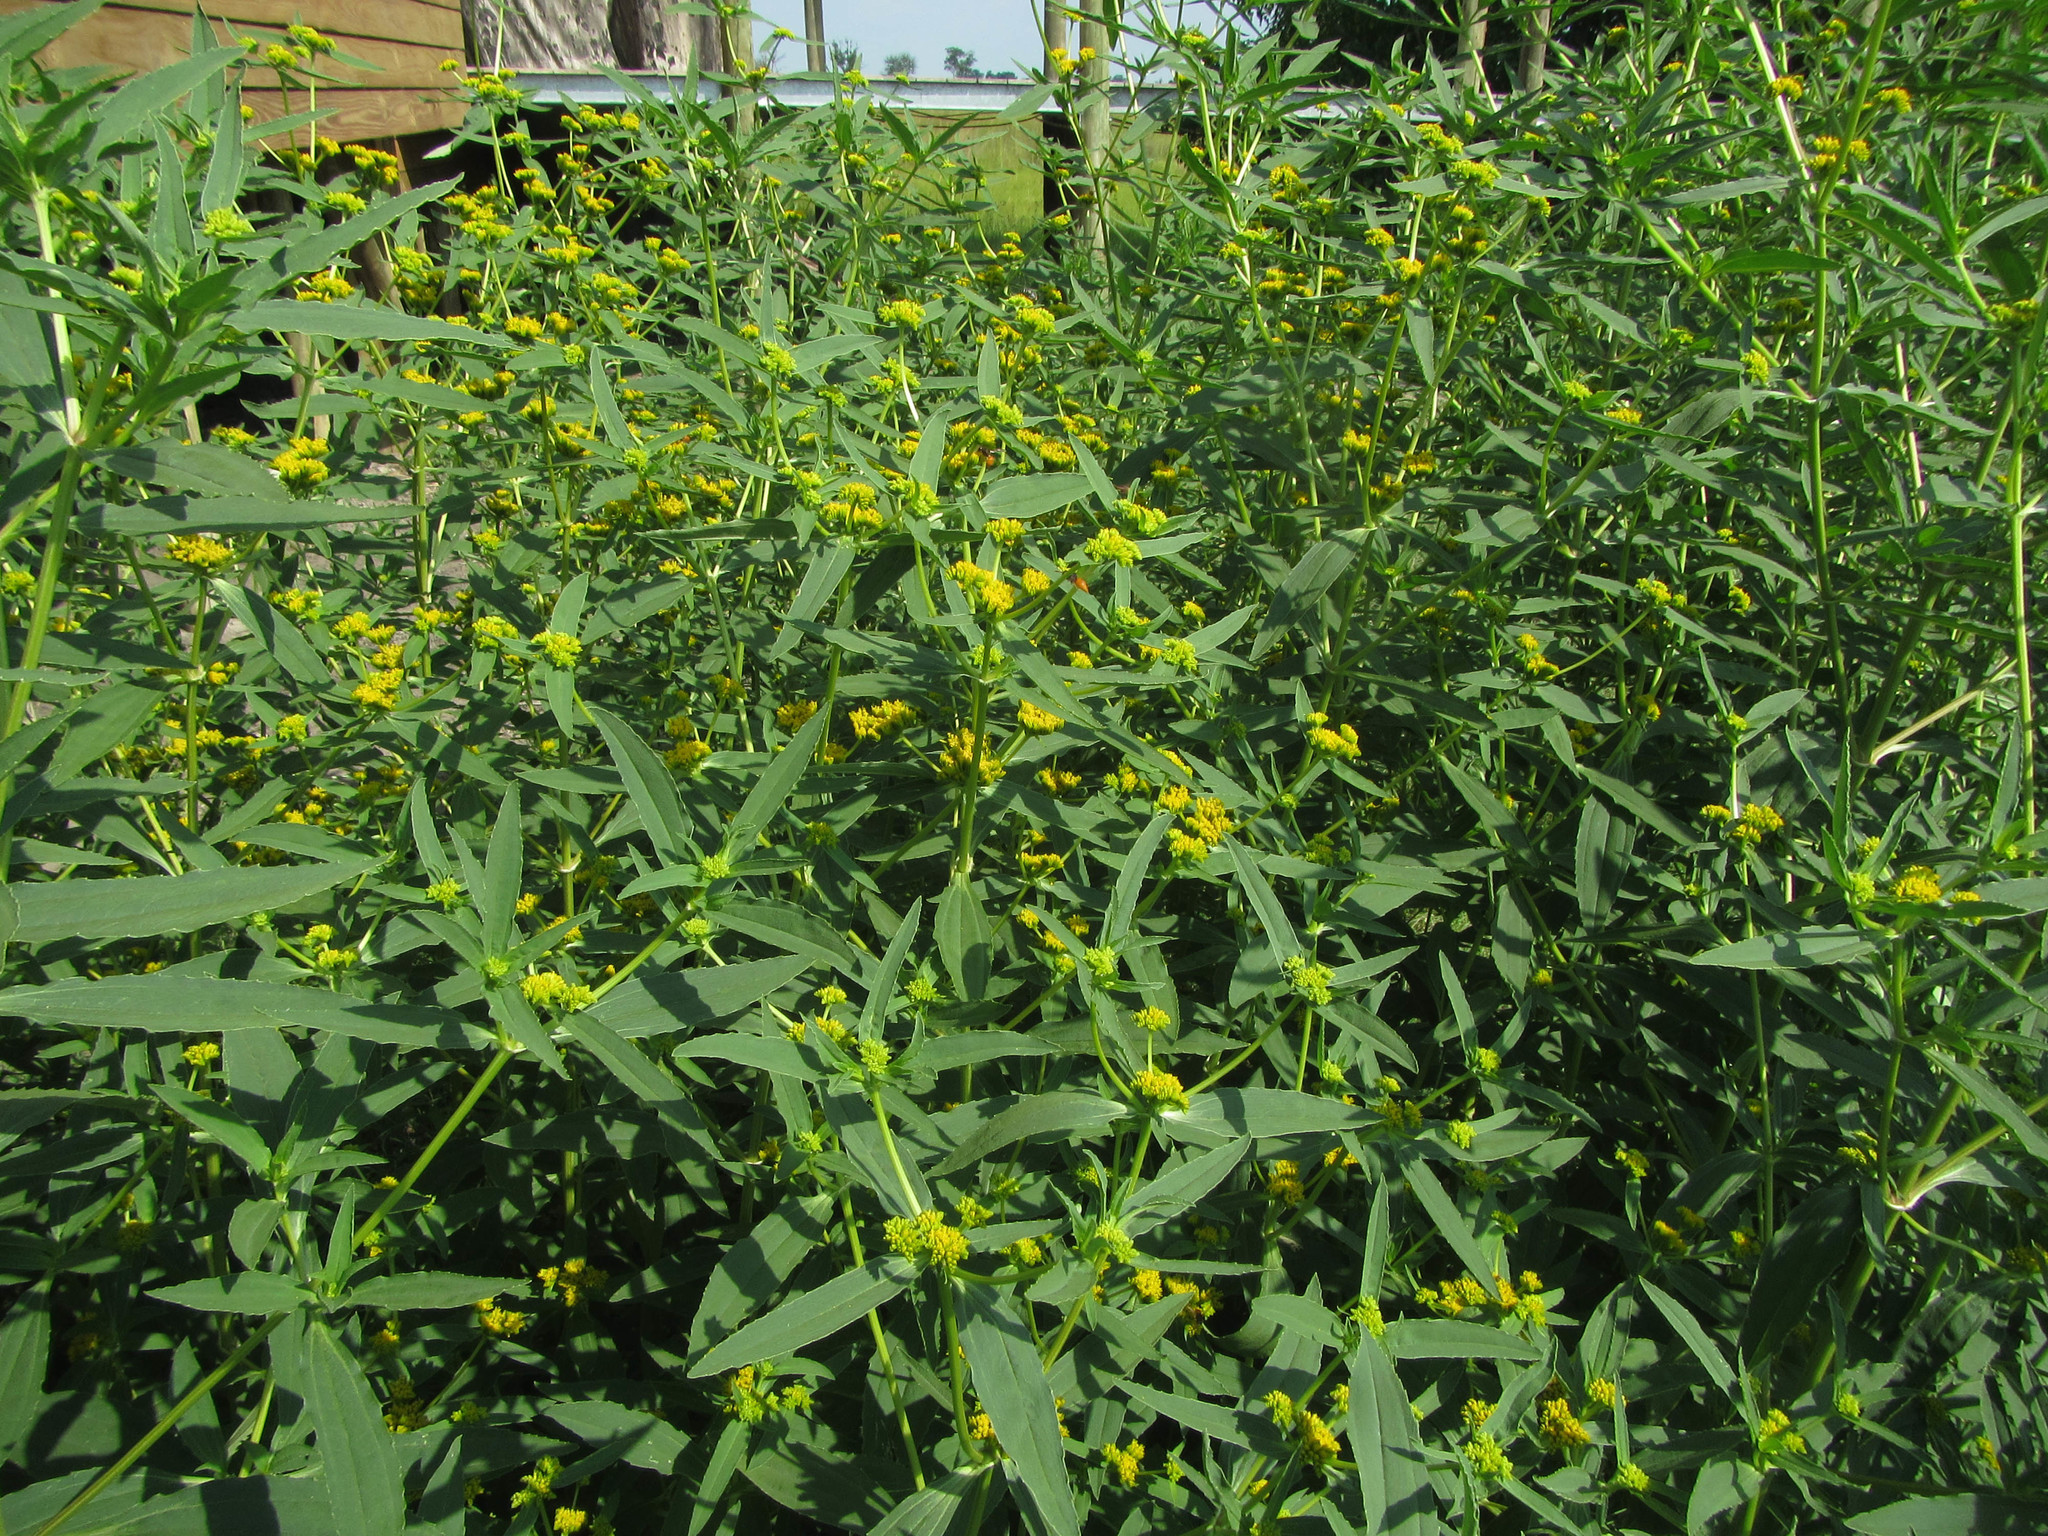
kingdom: Plantae
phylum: Tracheophyta
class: Magnoliopsida
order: Asterales
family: Asteraceae
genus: Flaveria
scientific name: Flaveria bidentis
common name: Coastal plain yellowtops
